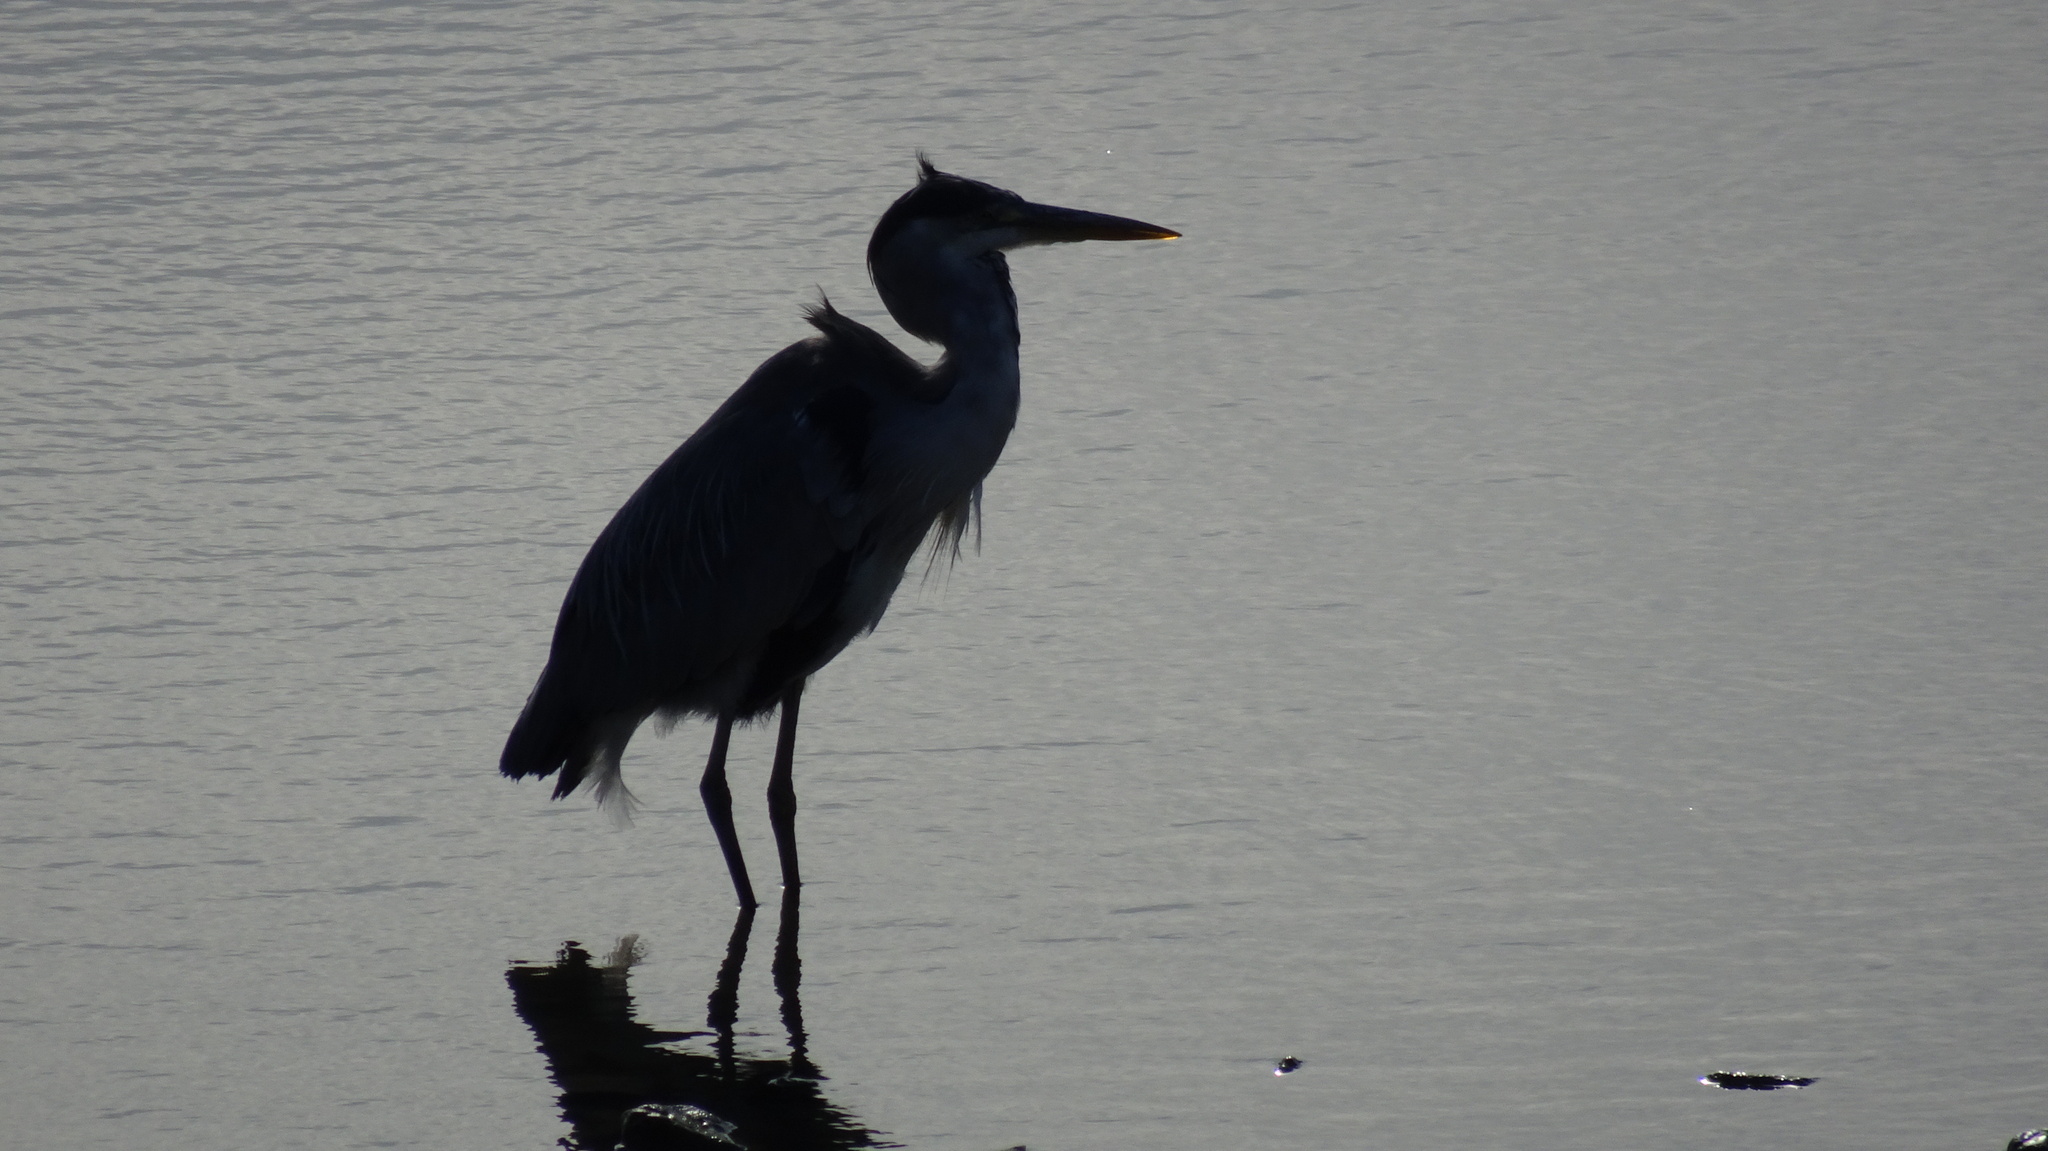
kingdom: Animalia
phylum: Chordata
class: Aves
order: Pelecaniformes
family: Ardeidae
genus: Ardea
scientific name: Ardea cinerea
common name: Grey heron
